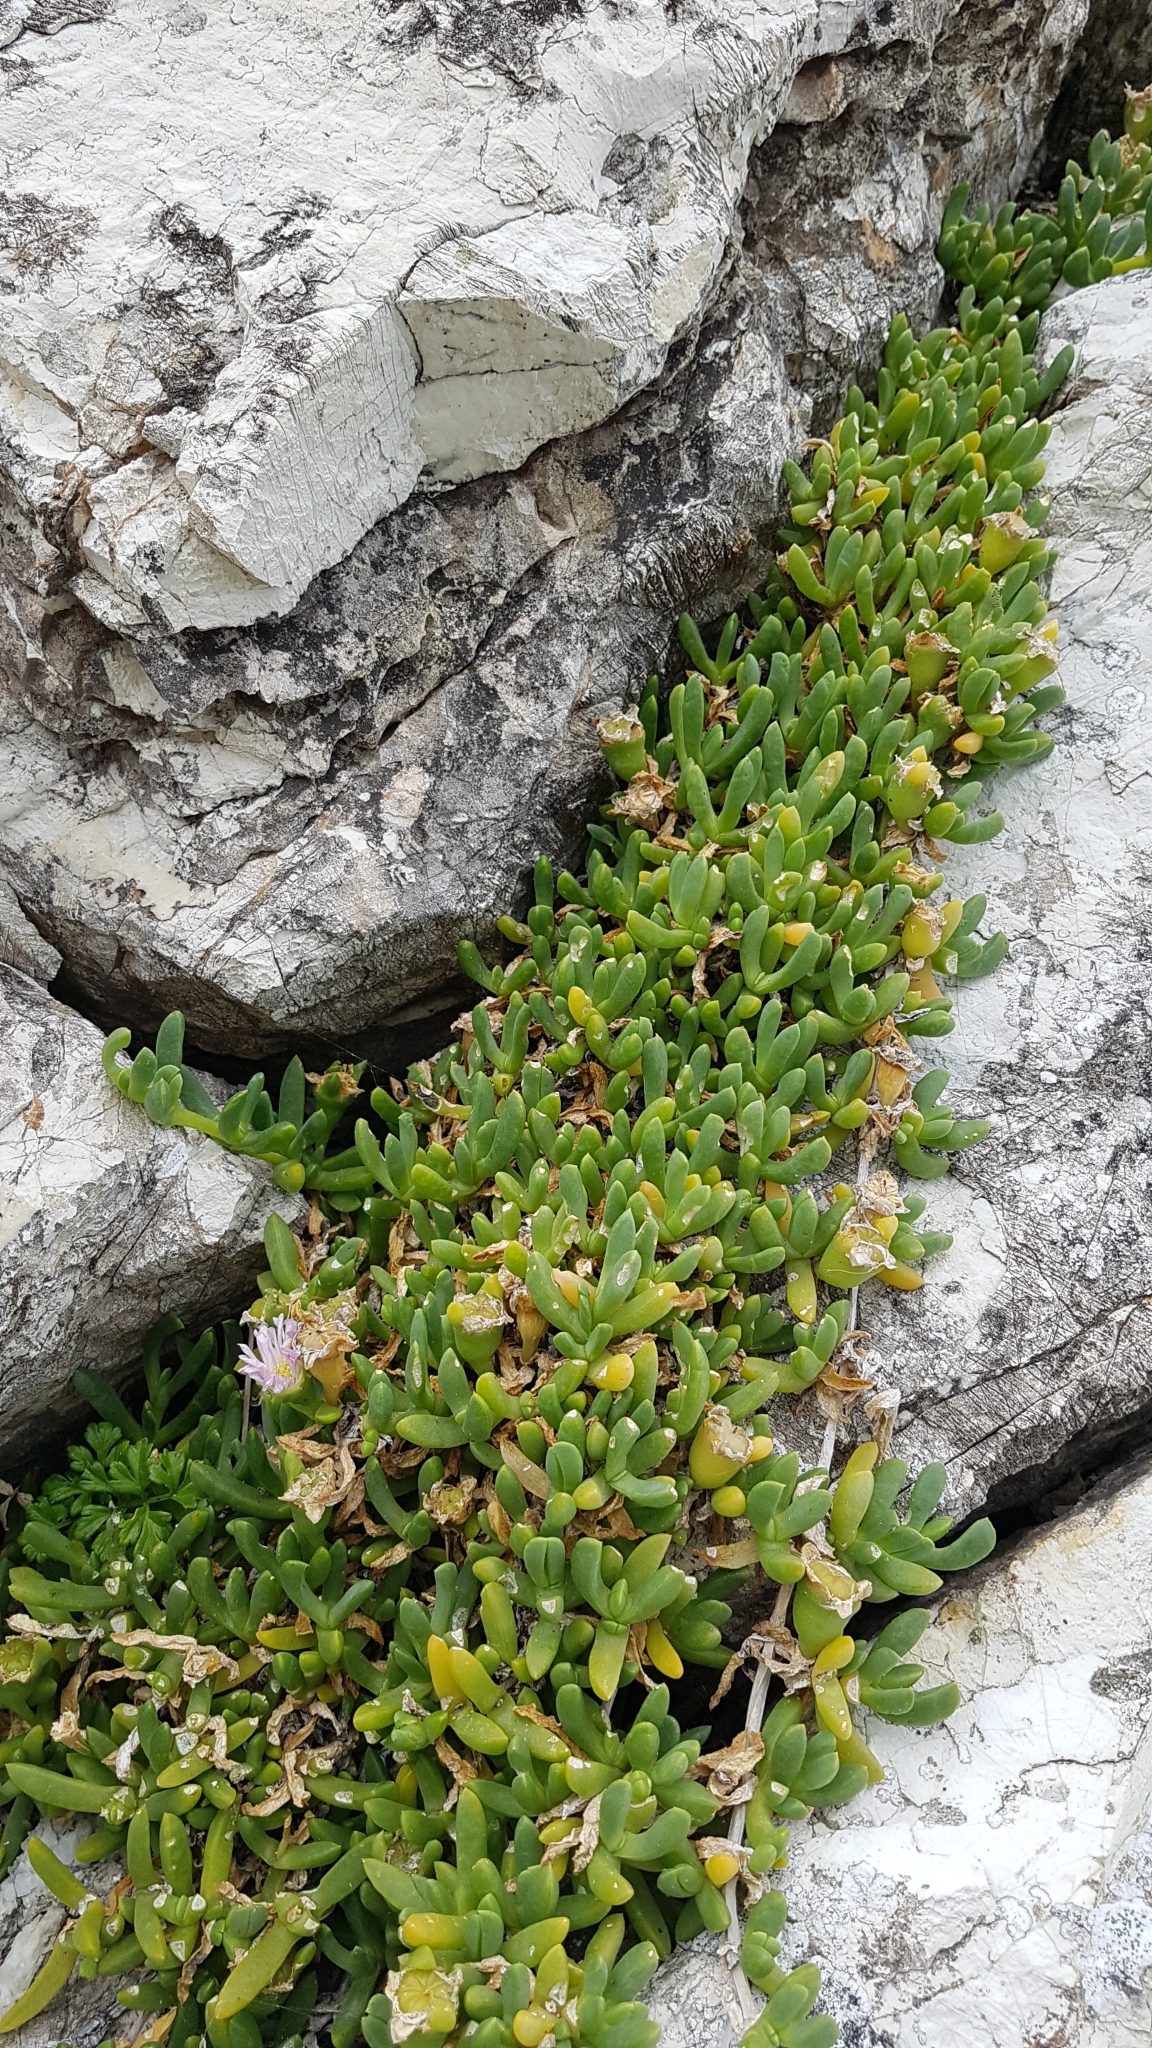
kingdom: Plantae
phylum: Tracheophyta
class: Magnoliopsida
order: Caryophyllales
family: Aizoaceae
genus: Disphyma
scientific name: Disphyma australe
